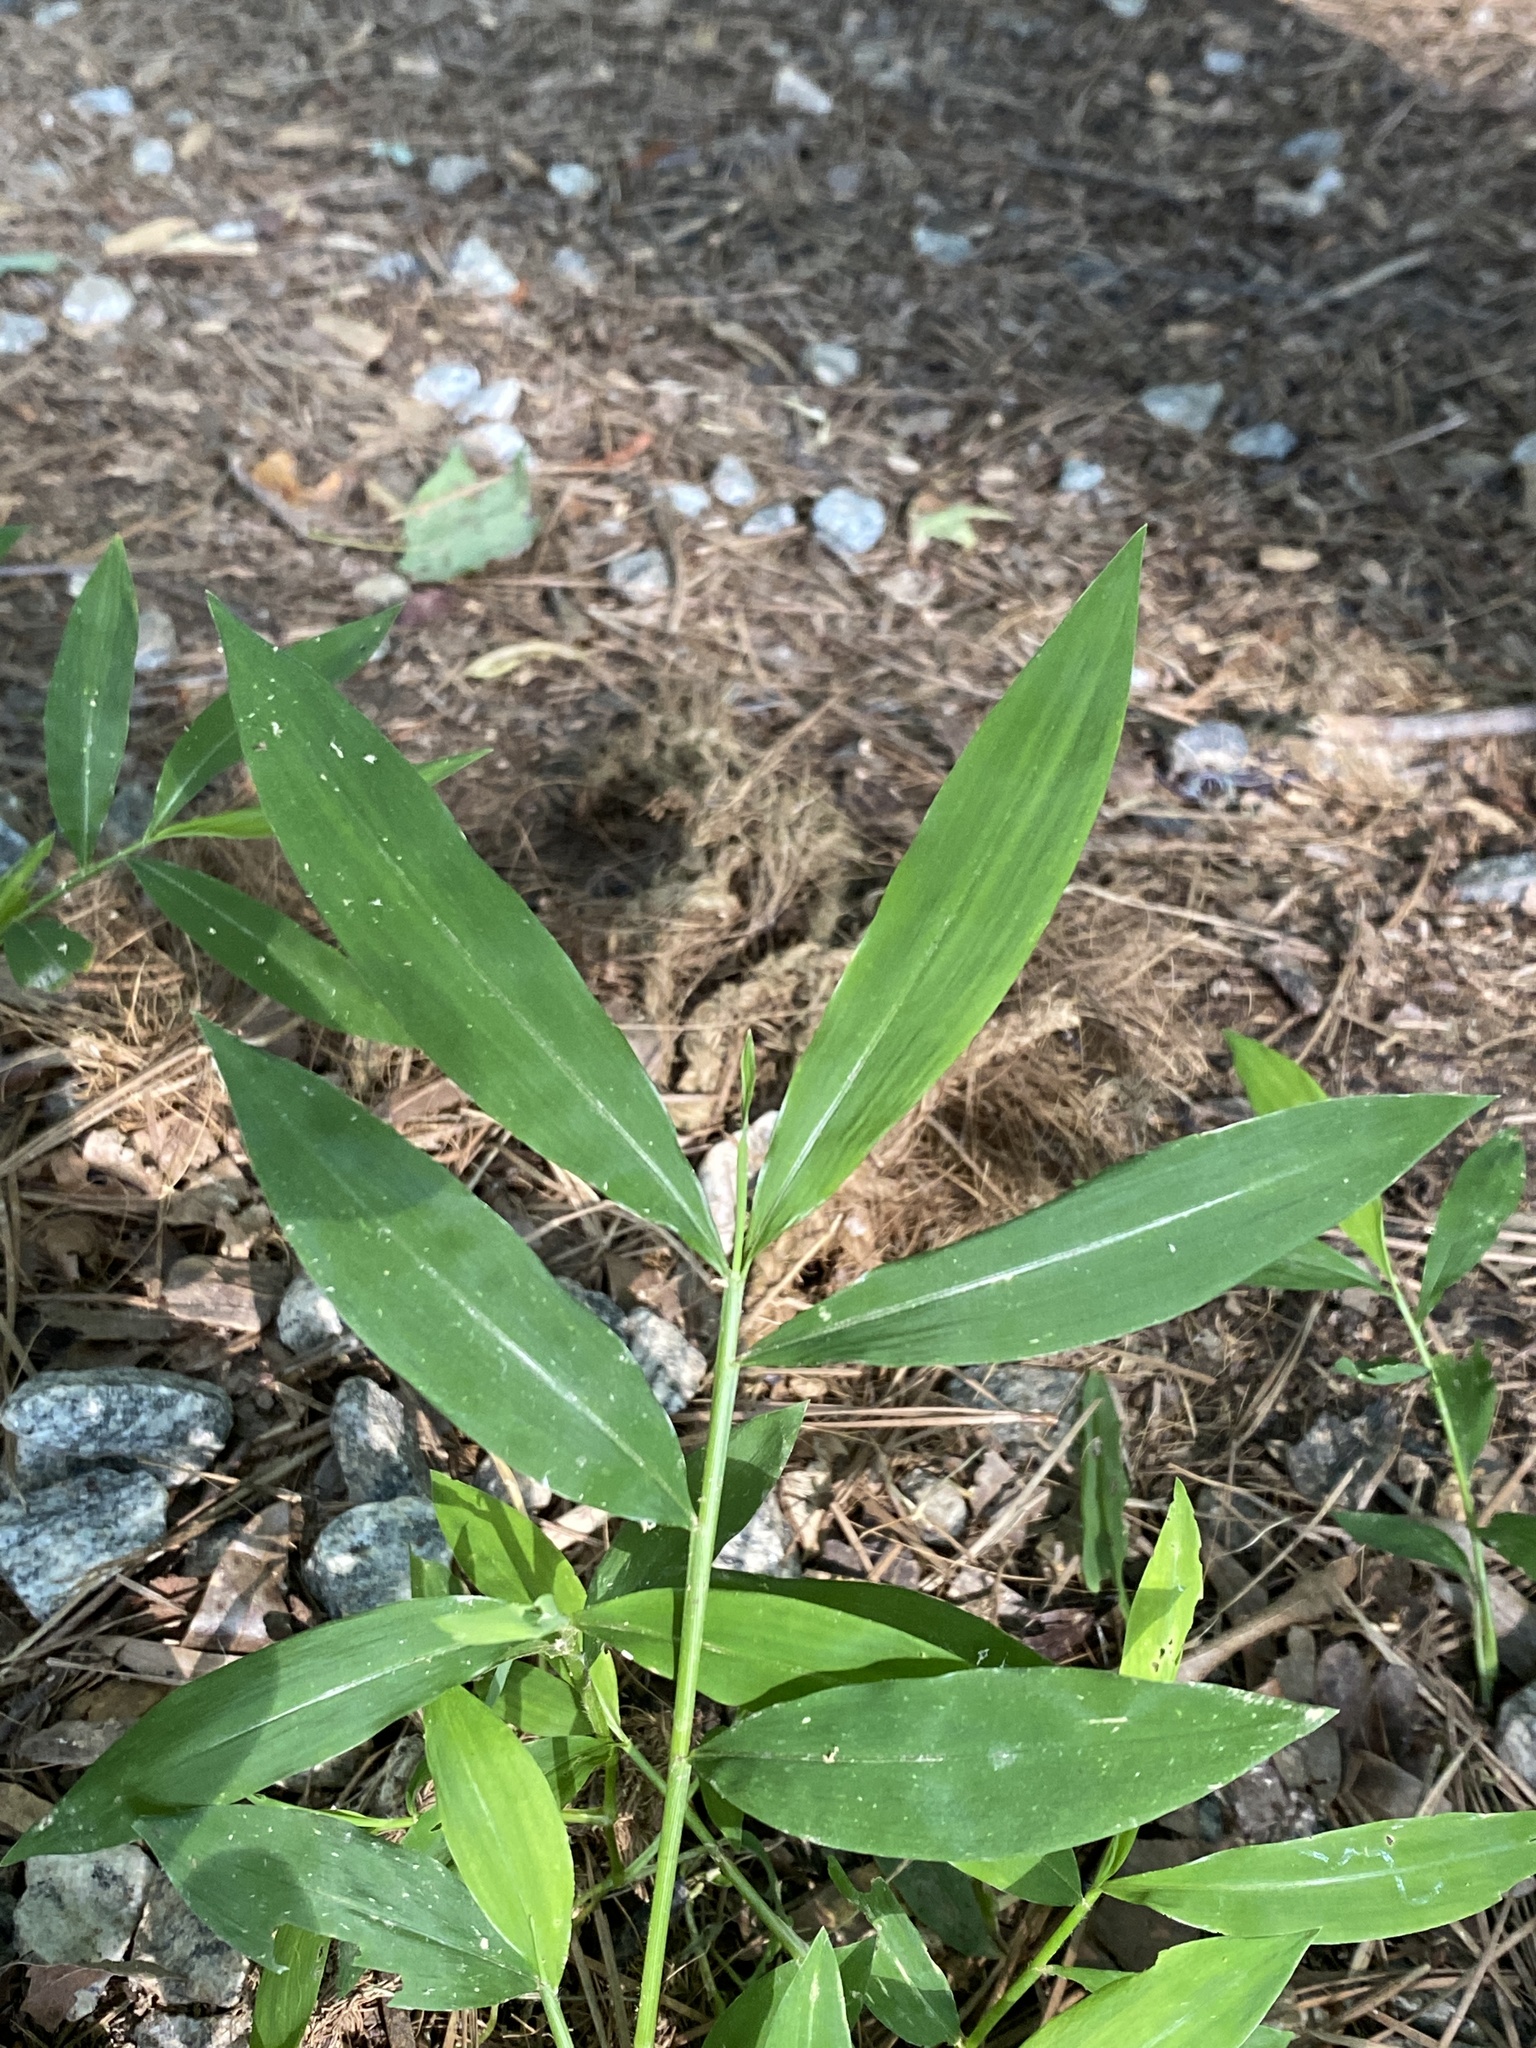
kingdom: Plantae
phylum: Tracheophyta
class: Liliopsida
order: Poales
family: Poaceae
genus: Microstegium
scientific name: Microstegium vimineum
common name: Japanese stiltgrass
